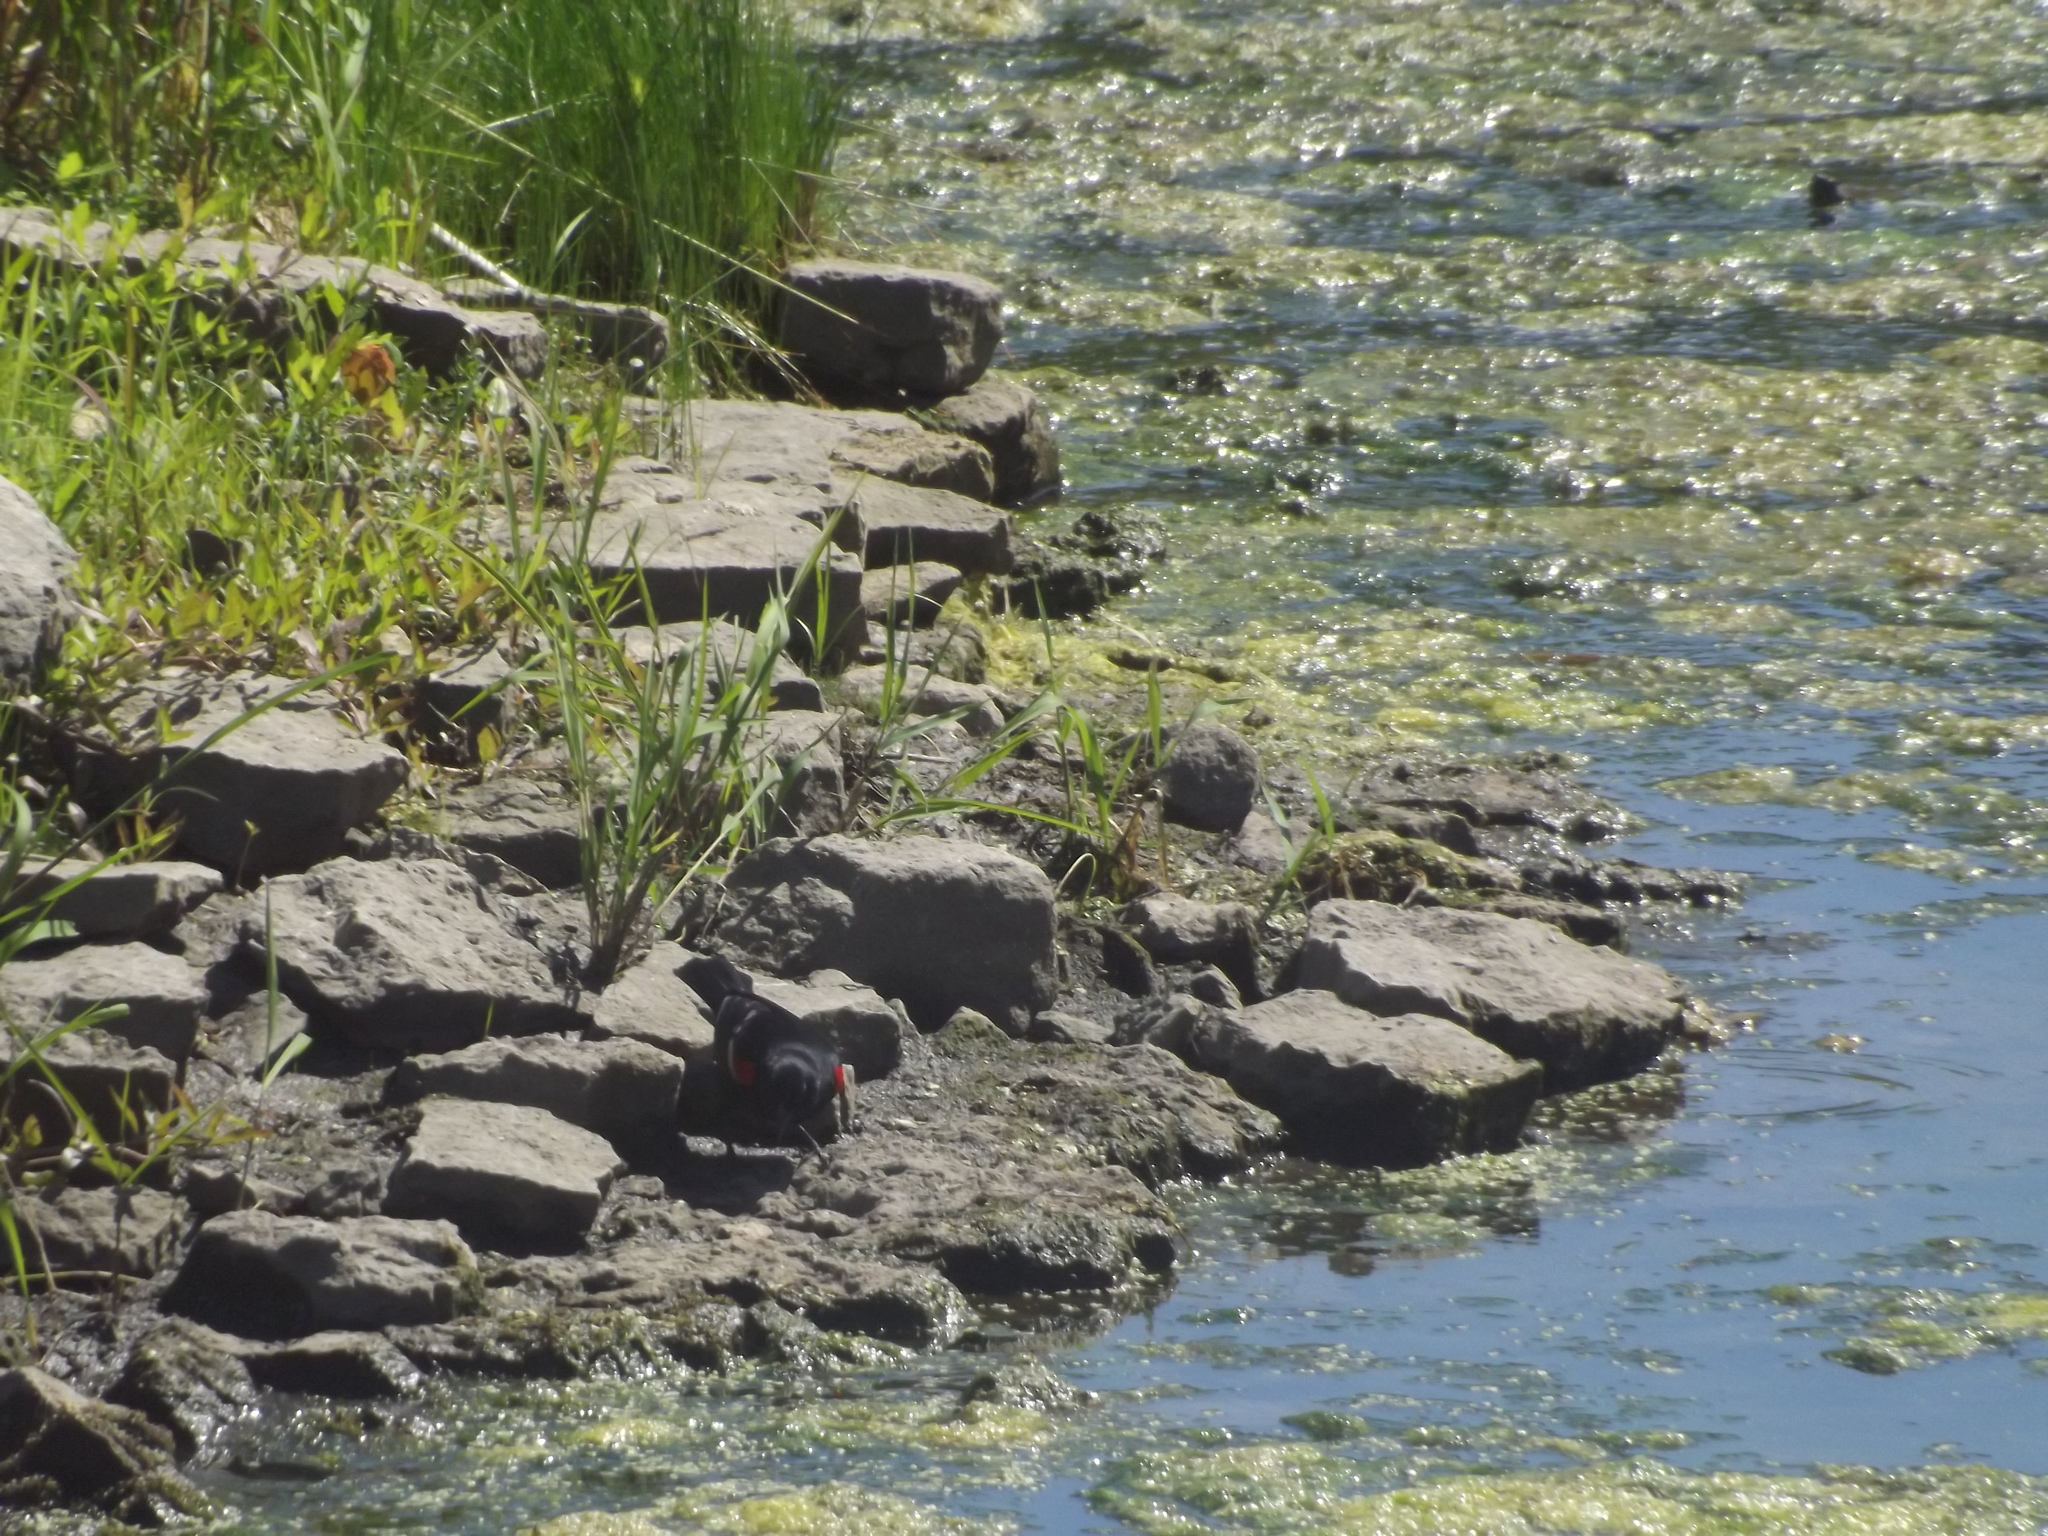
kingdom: Animalia
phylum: Chordata
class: Aves
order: Passeriformes
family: Icteridae
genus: Agelaius
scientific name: Agelaius phoeniceus
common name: Red-winged blackbird
